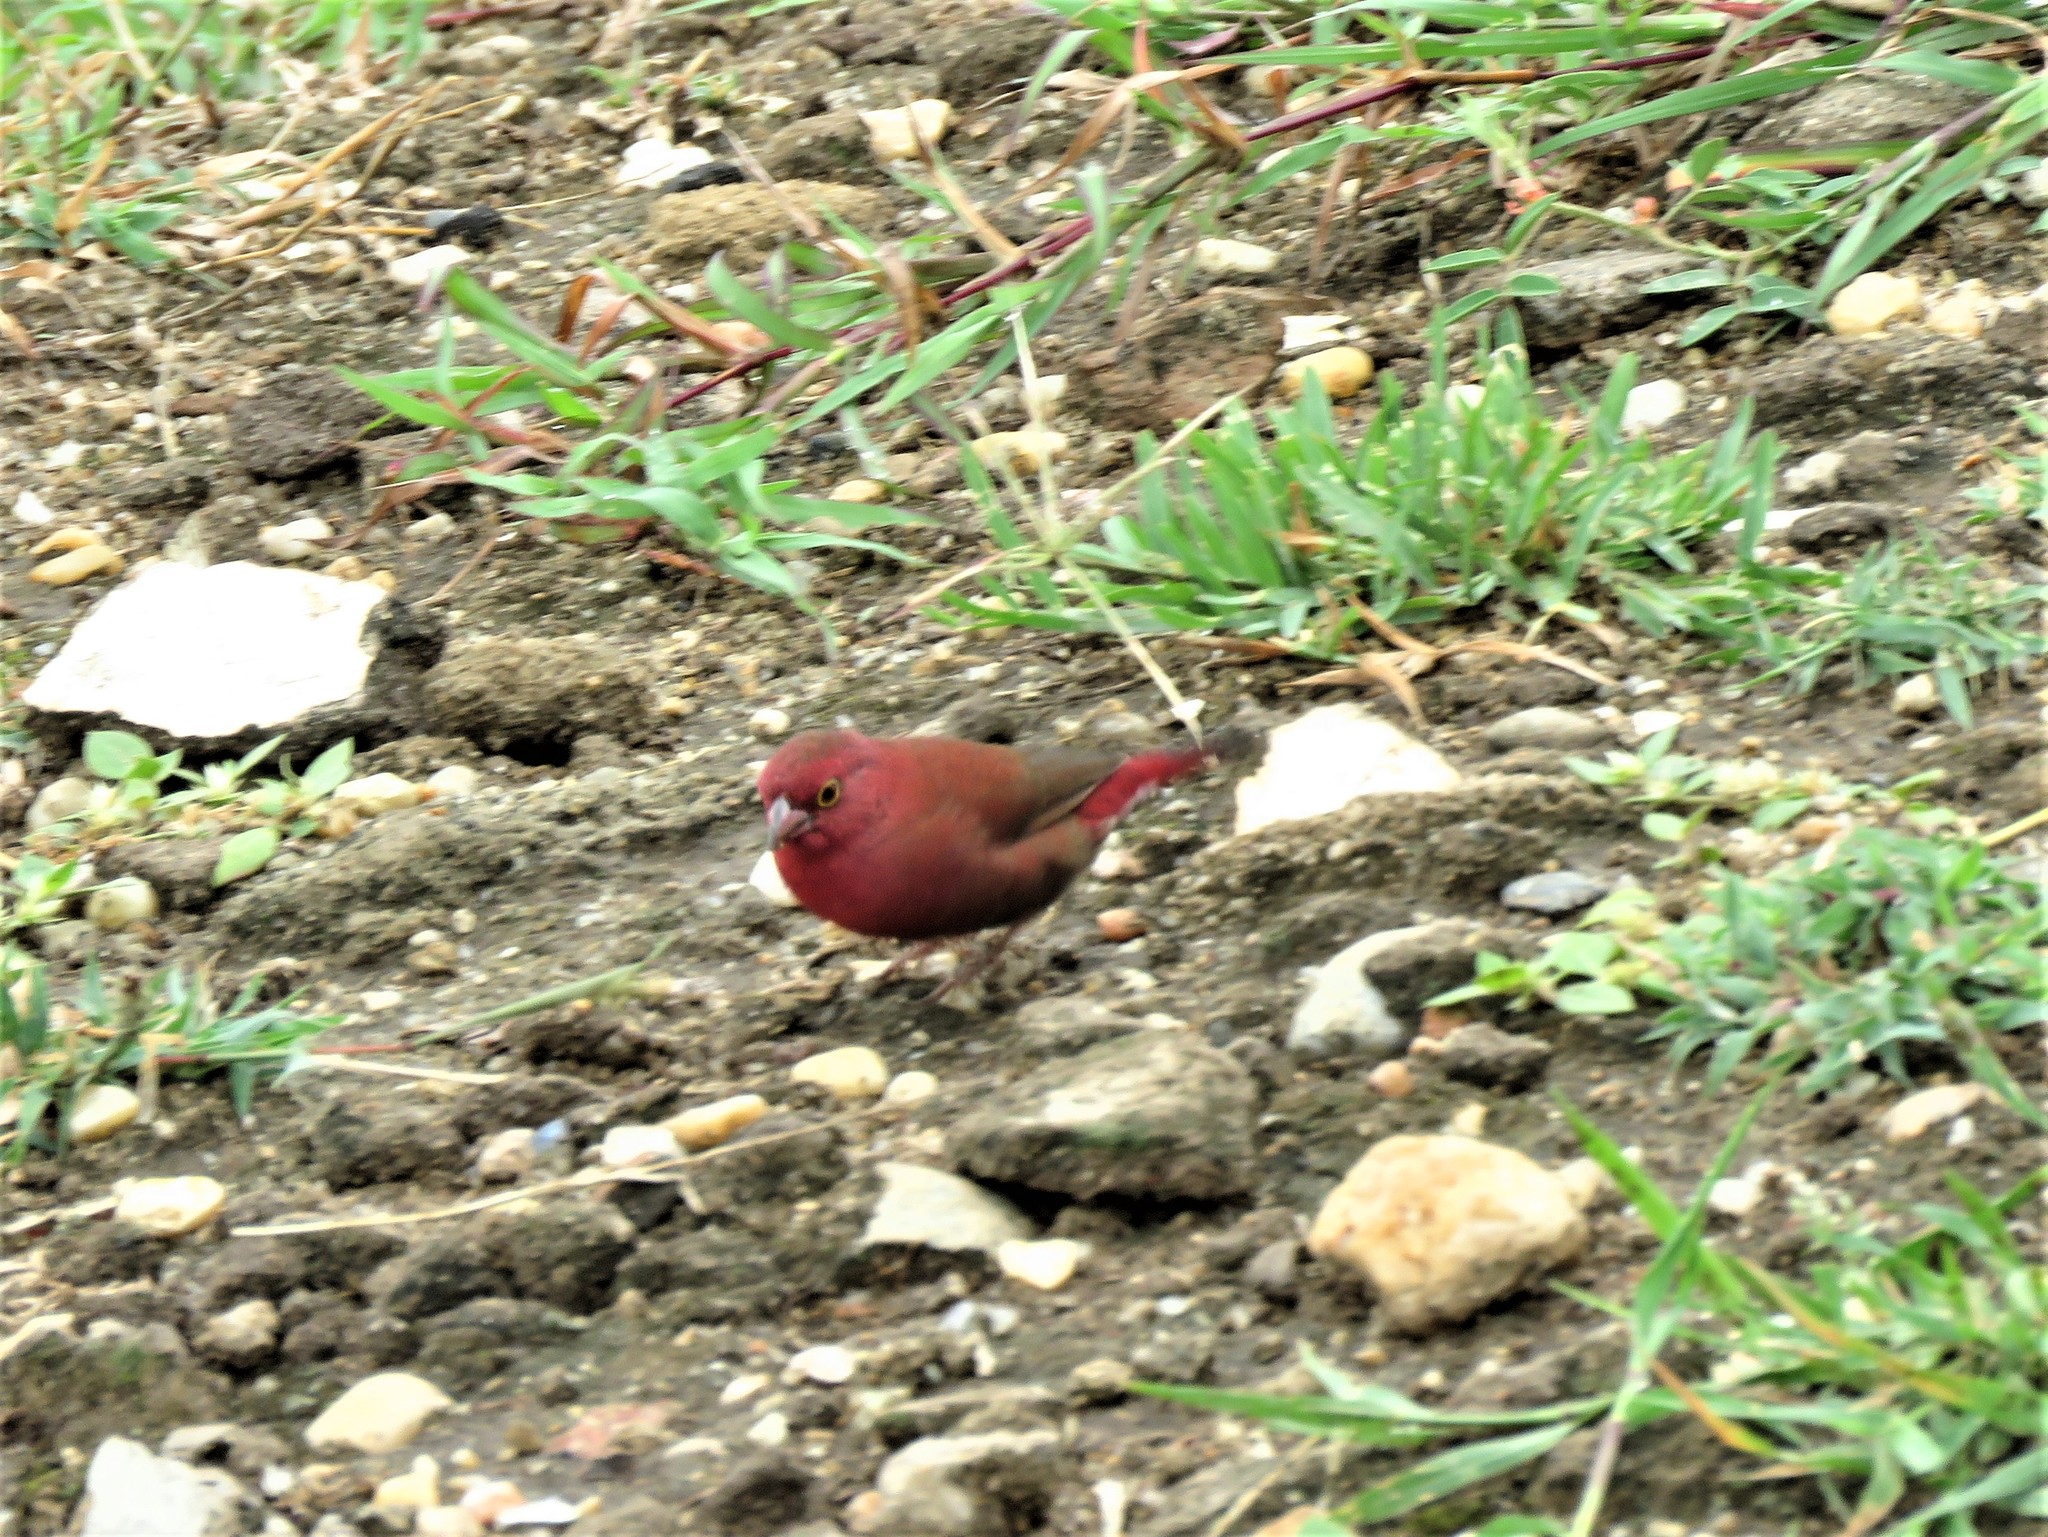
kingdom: Animalia
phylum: Chordata
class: Aves
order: Passeriformes
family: Estrildidae
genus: Lagonosticta
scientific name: Lagonosticta senegala
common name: Red-billed firefinch
